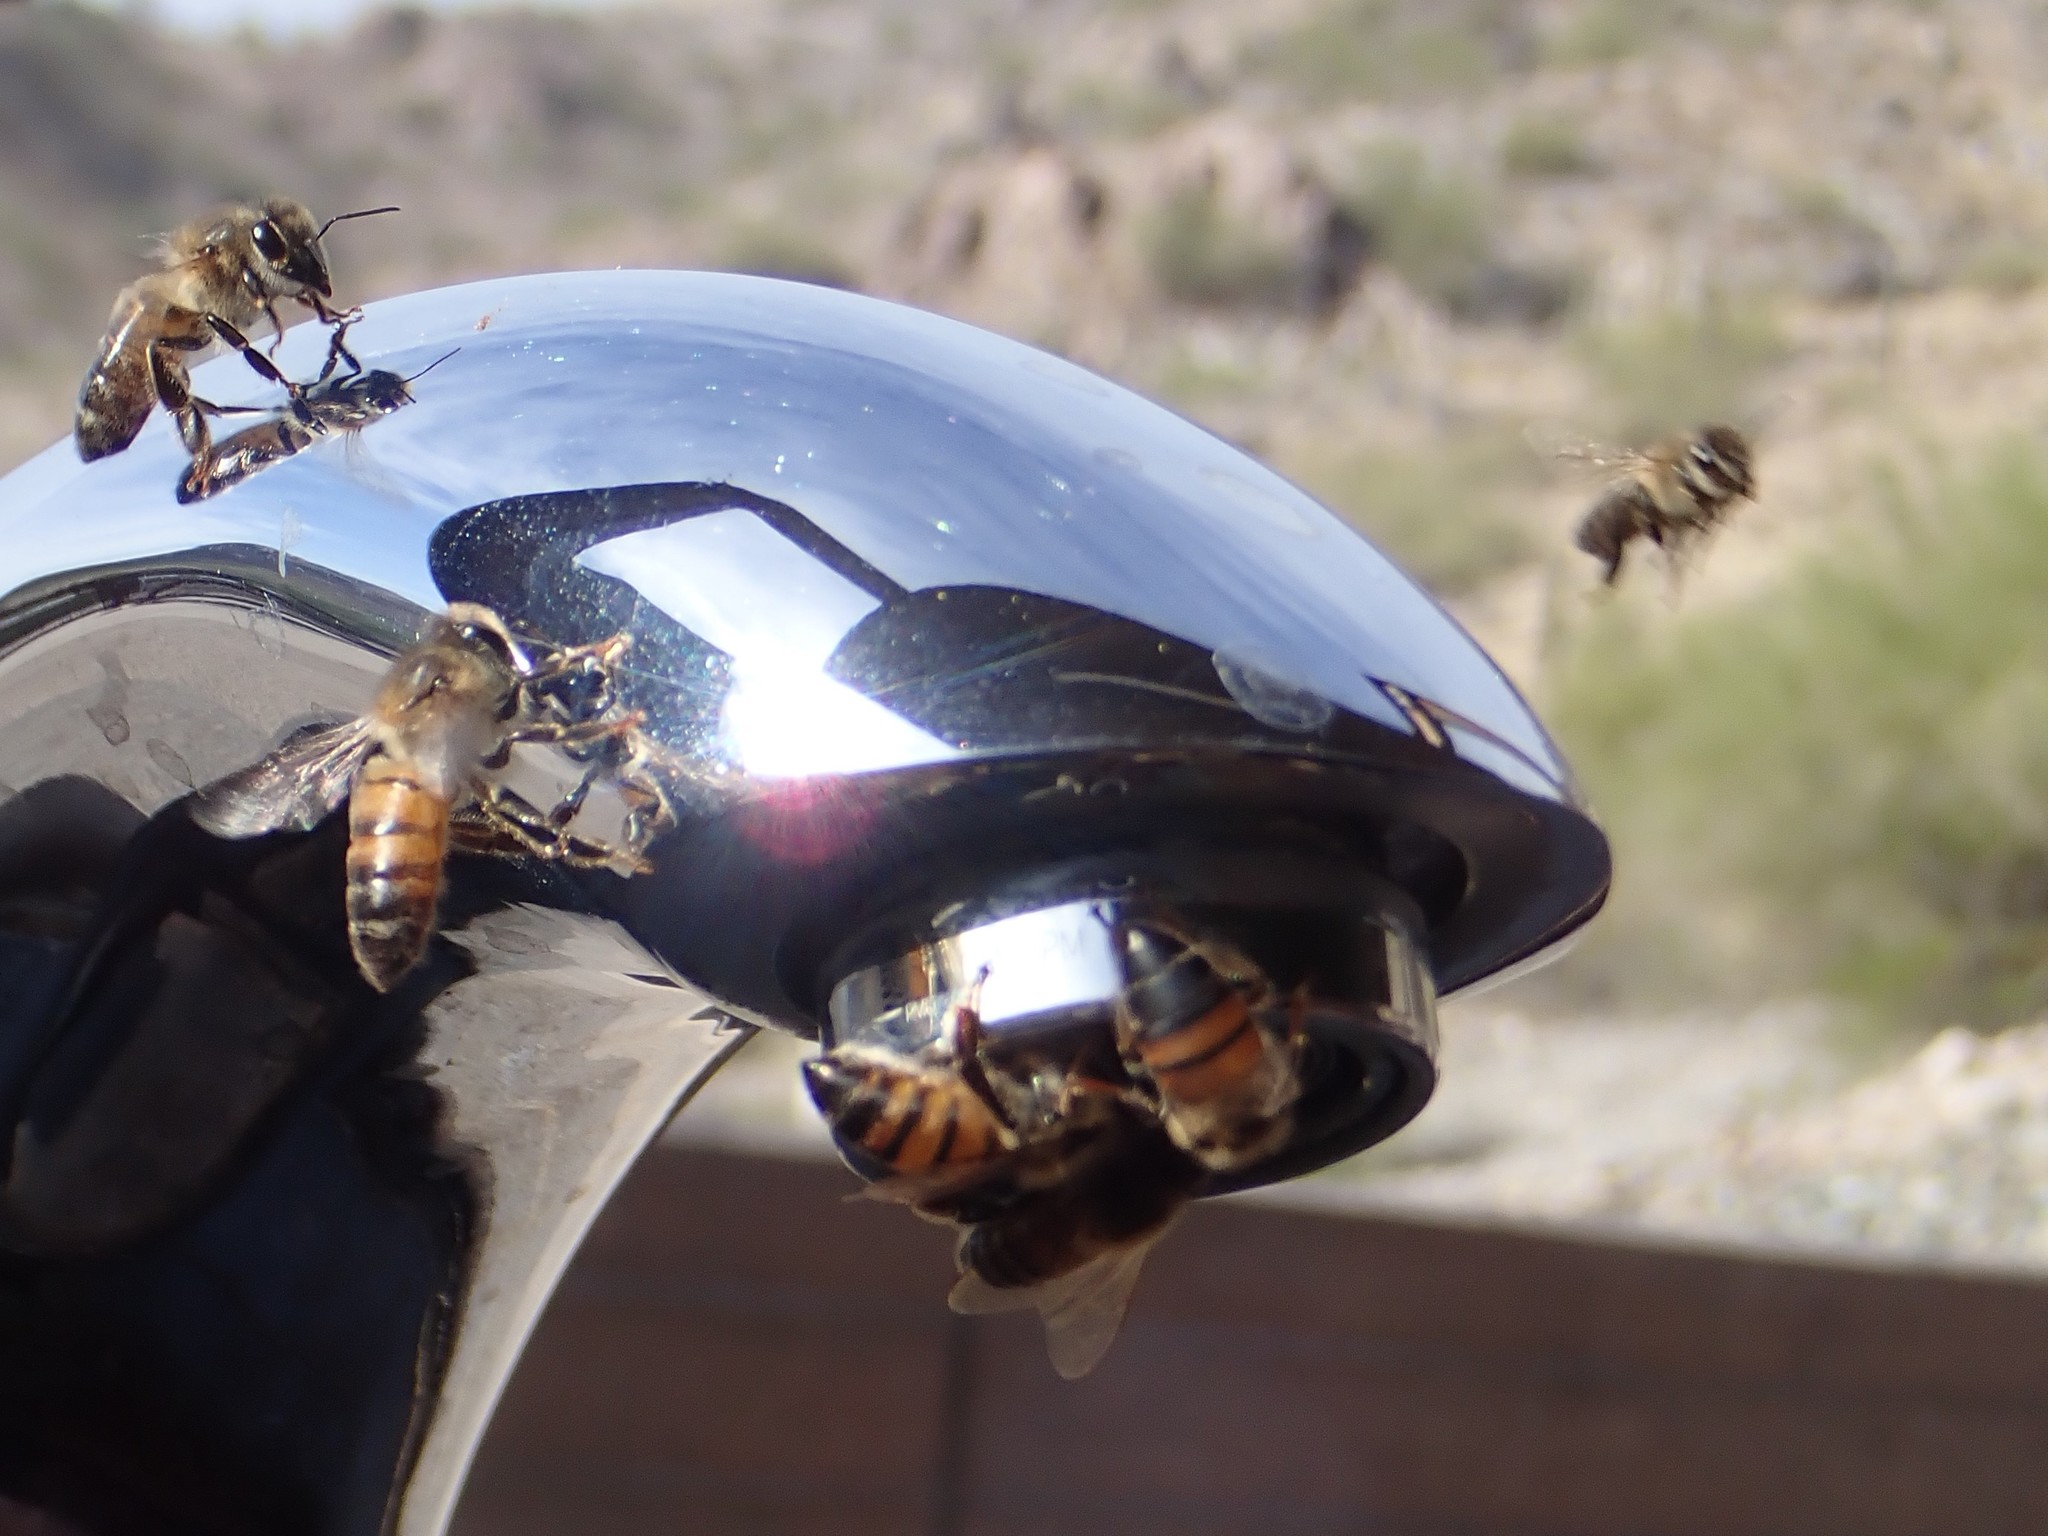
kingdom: Animalia
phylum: Arthropoda
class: Insecta
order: Hymenoptera
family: Apidae
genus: Apis
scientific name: Apis mellifera
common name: Honey bee
